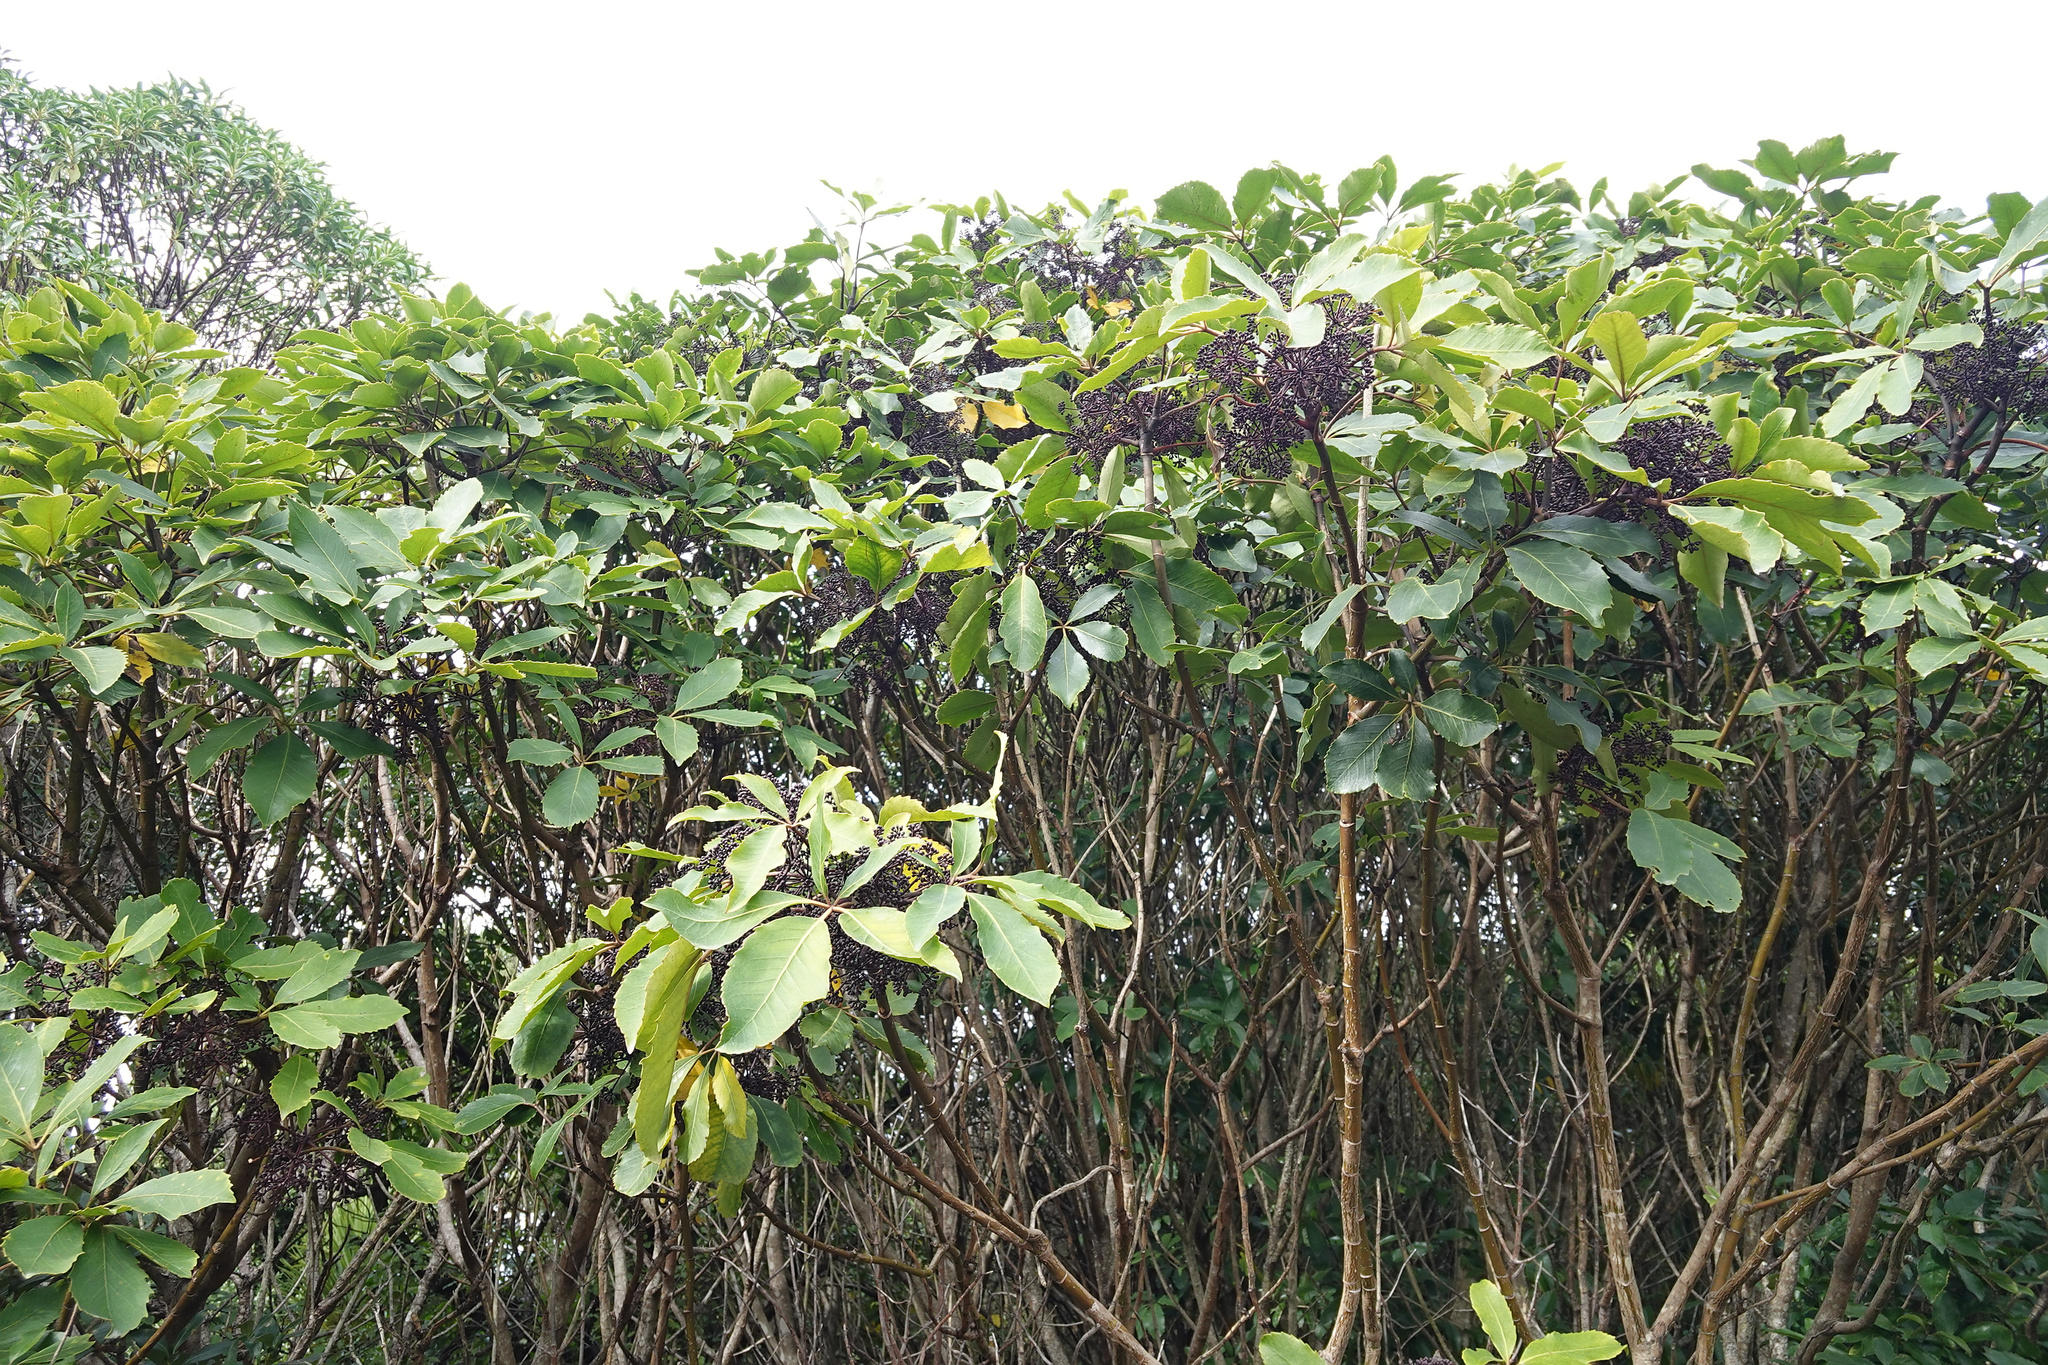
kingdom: Plantae
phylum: Tracheophyta
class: Magnoliopsida
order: Apiales
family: Araliaceae
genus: Neopanax
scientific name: Neopanax arboreus
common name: Five-fingers
